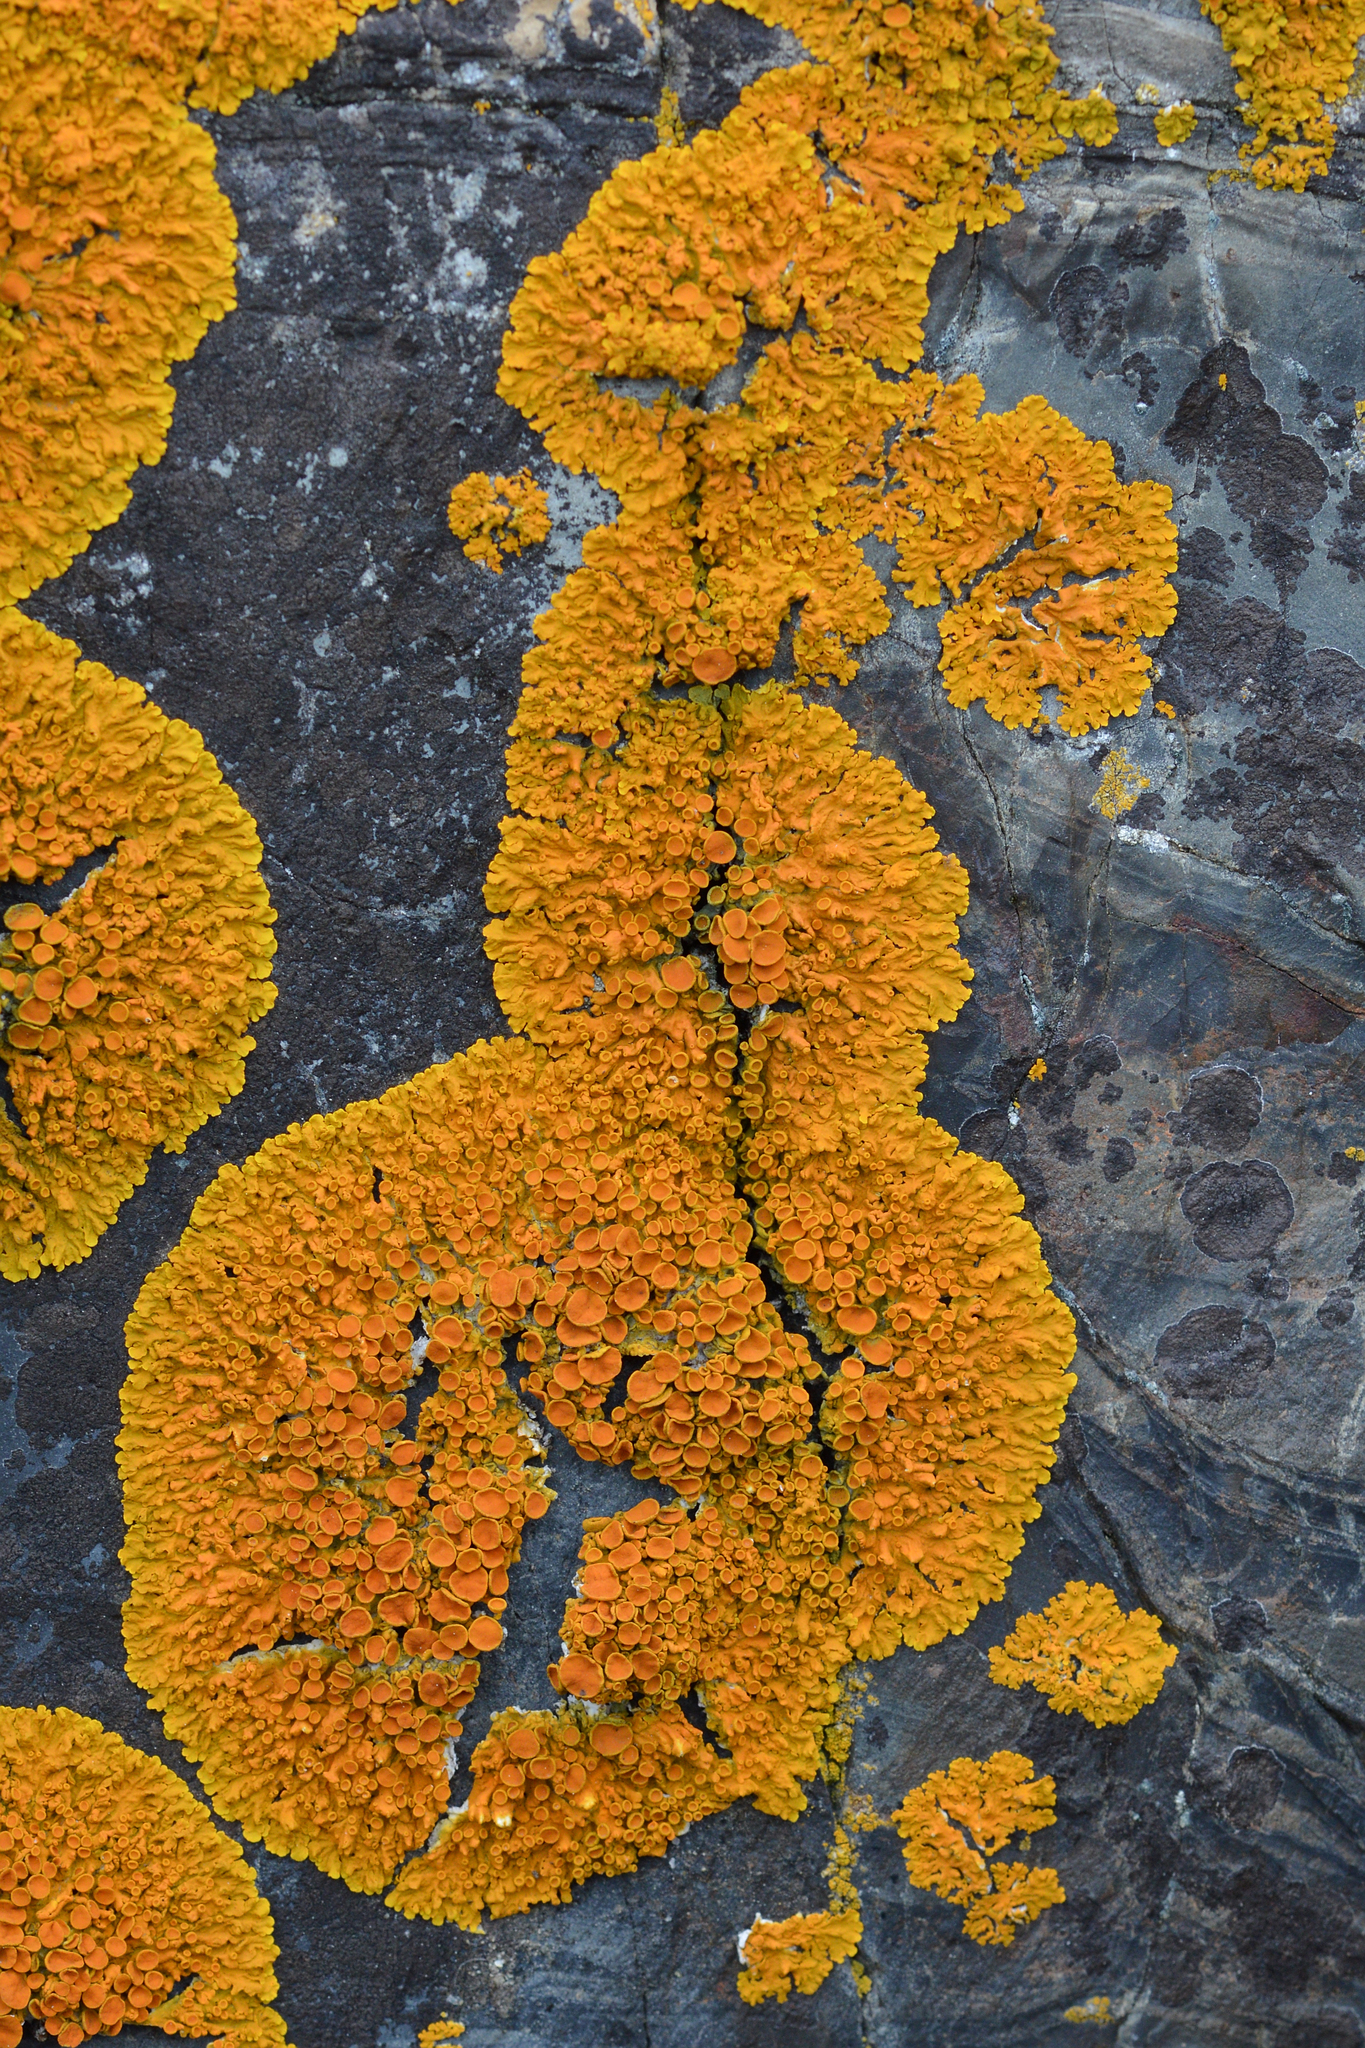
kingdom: Fungi
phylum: Ascomycota
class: Lecanoromycetes
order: Teloschistales
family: Teloschistaceae
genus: Xanthoria
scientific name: Xanthoria parietina
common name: Common orange lichen
